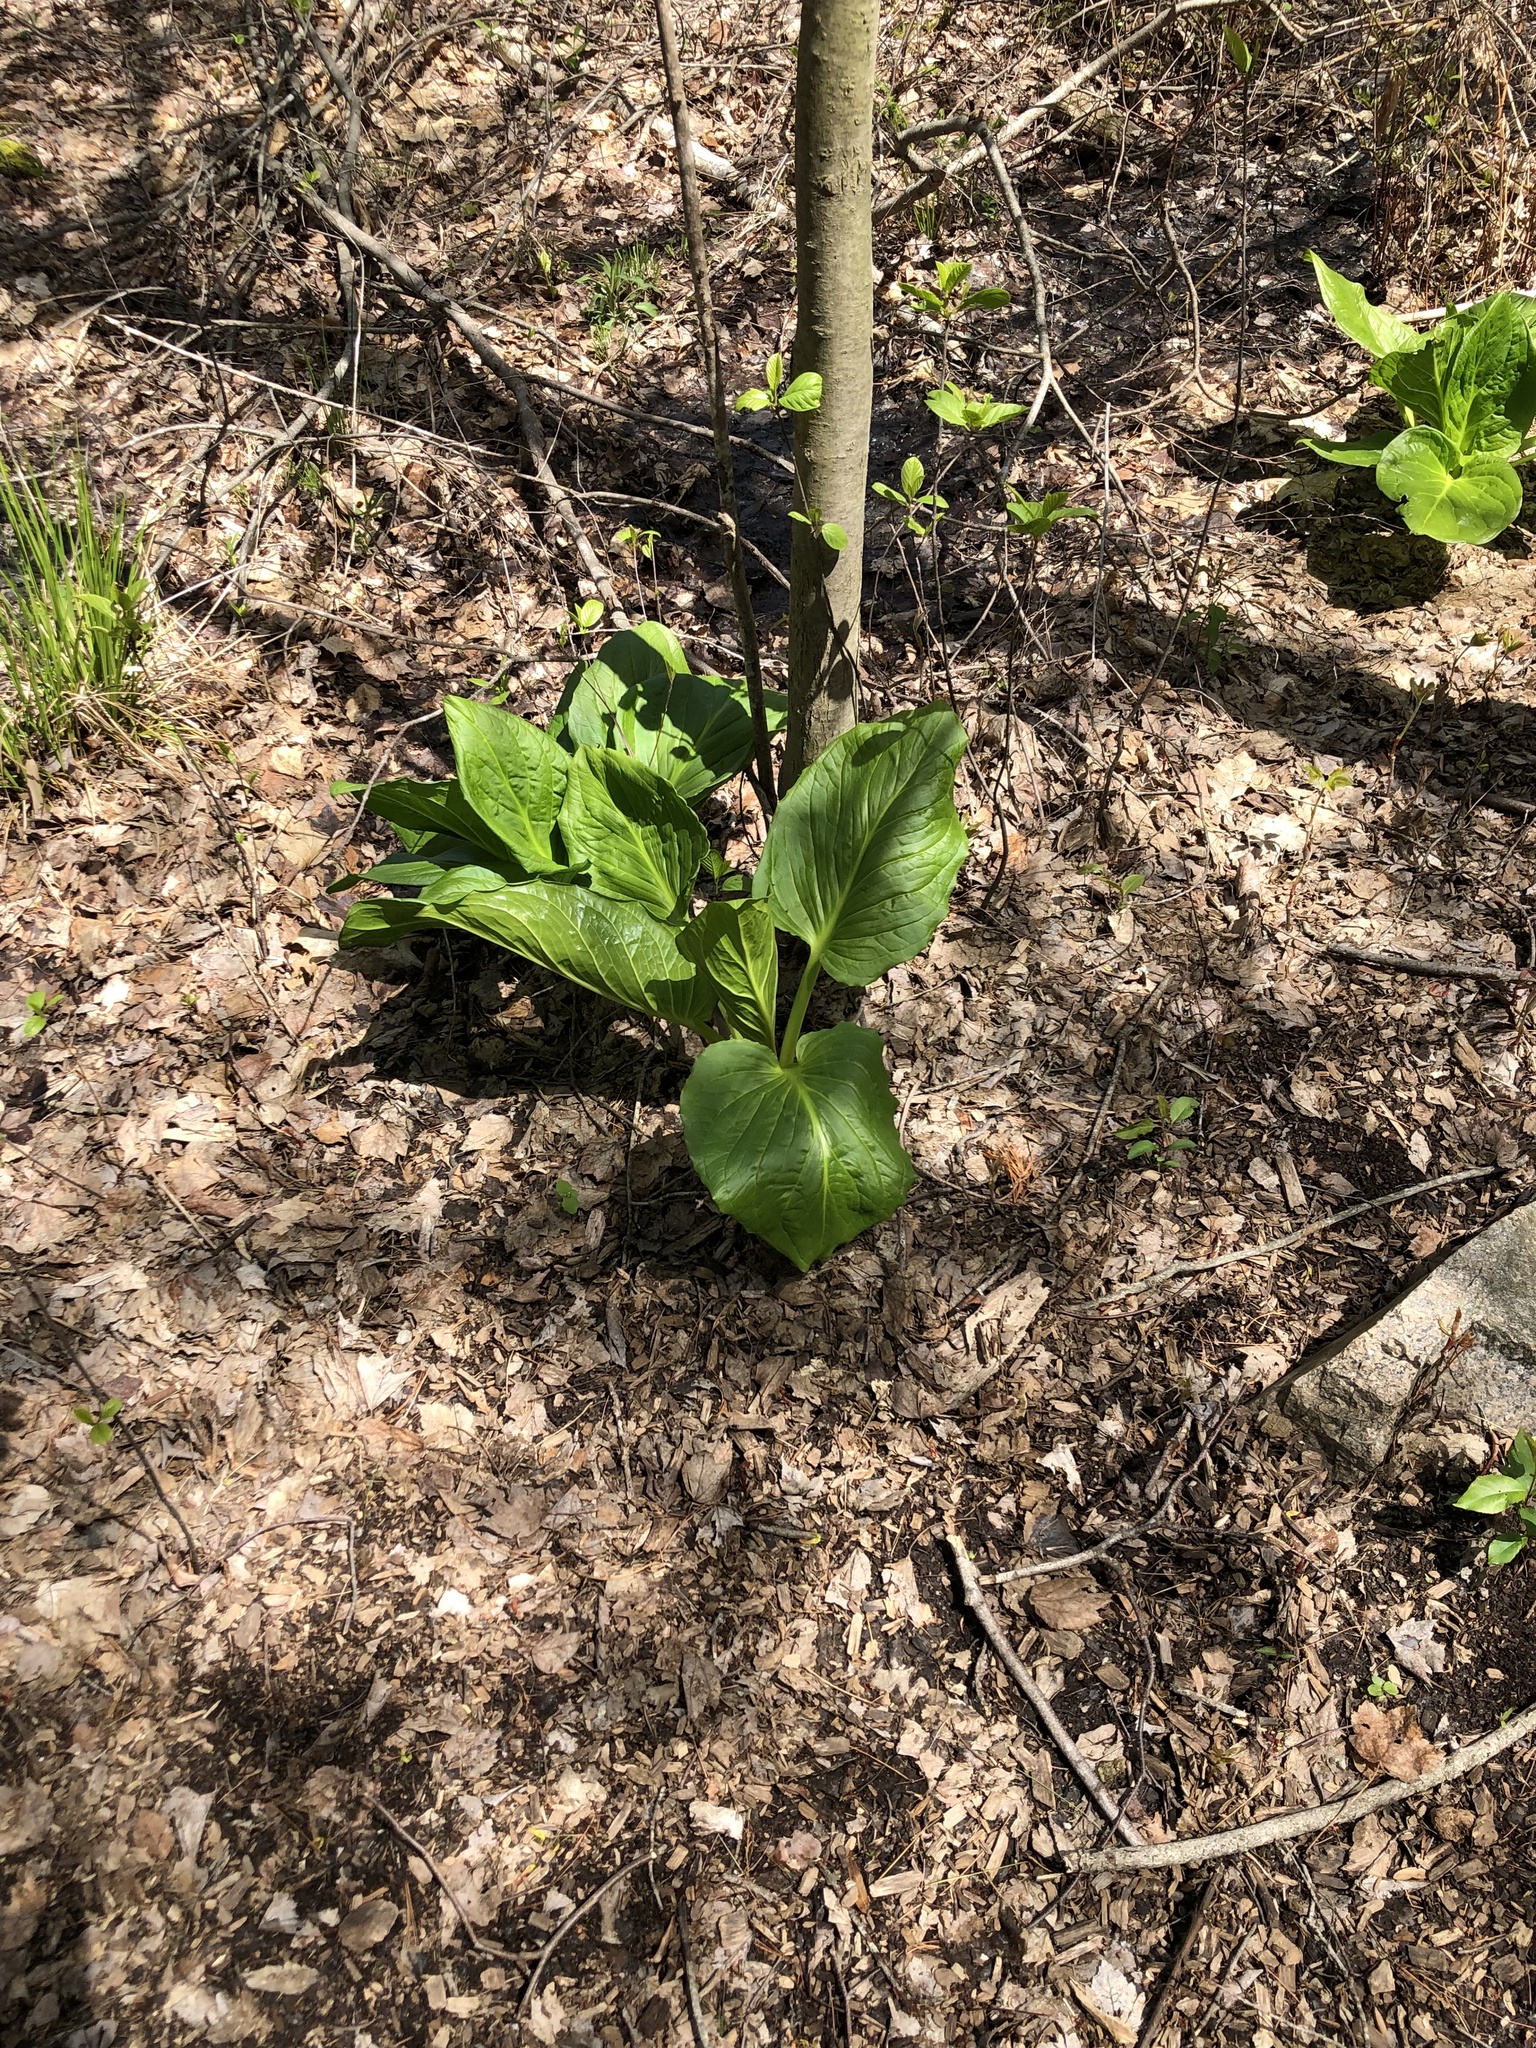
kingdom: Plantae
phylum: Tracheophyta
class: Liliopsida
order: Alismatales
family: Araceae
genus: Symplocarpus
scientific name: Symplocarpus foetidus
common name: Eastern skunk cabbage
